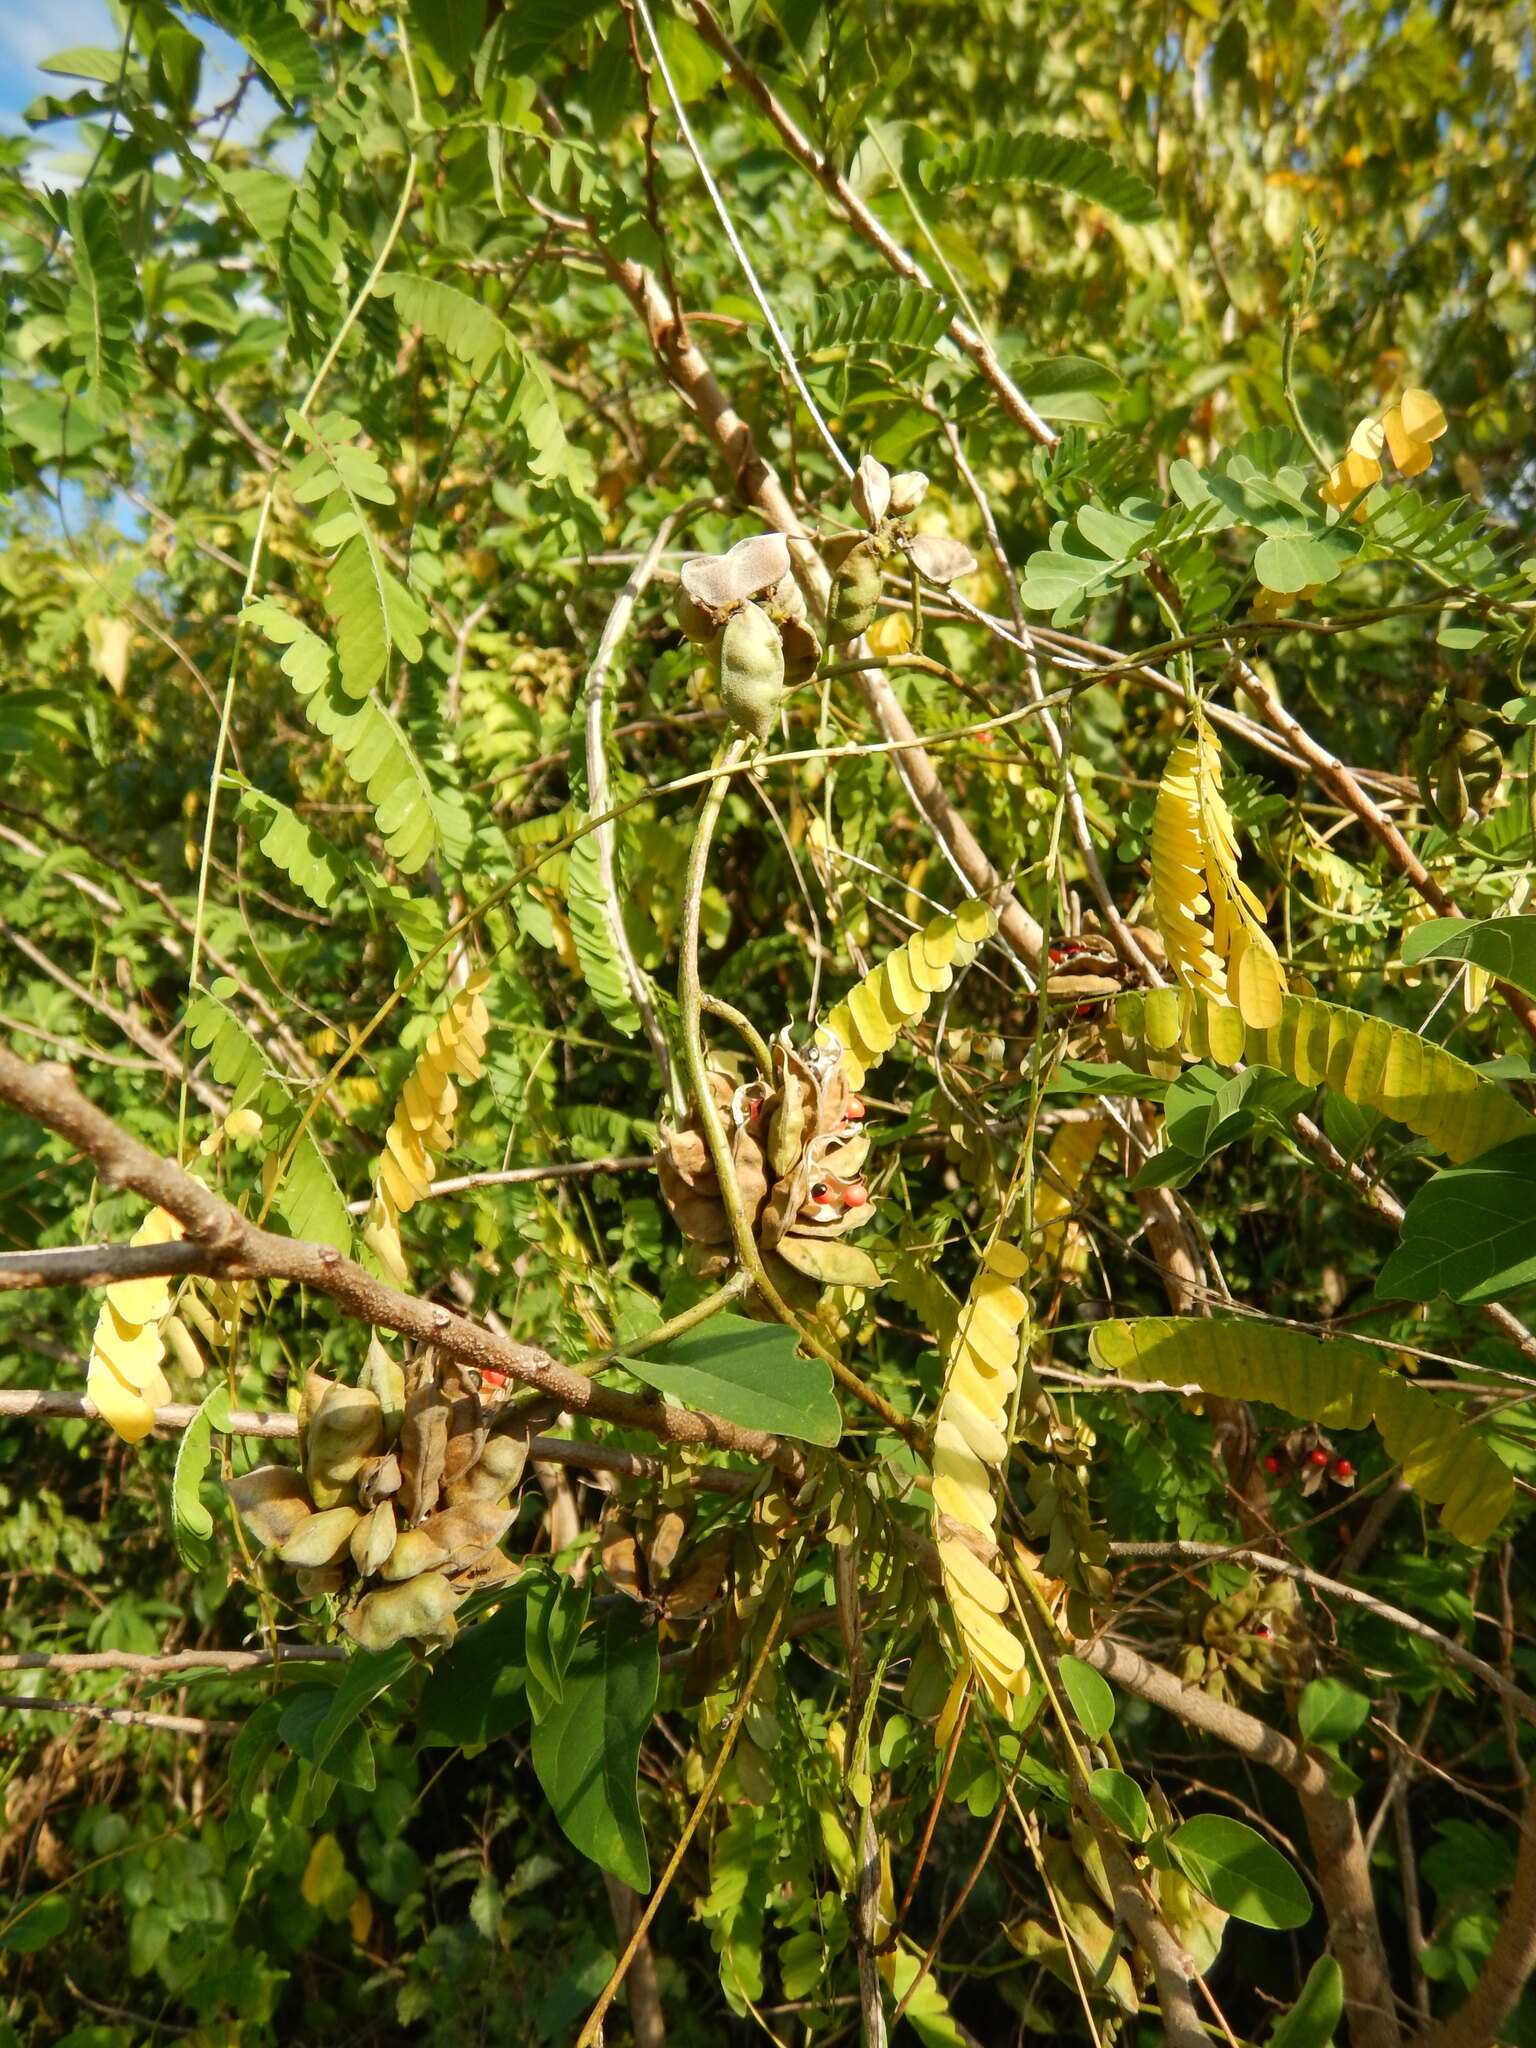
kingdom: Plantae
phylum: Tracheophyta
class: Magnoliopsida
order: Fabales
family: Fabaceae
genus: Abrus
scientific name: Abrus precatorius
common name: Rosarypea
